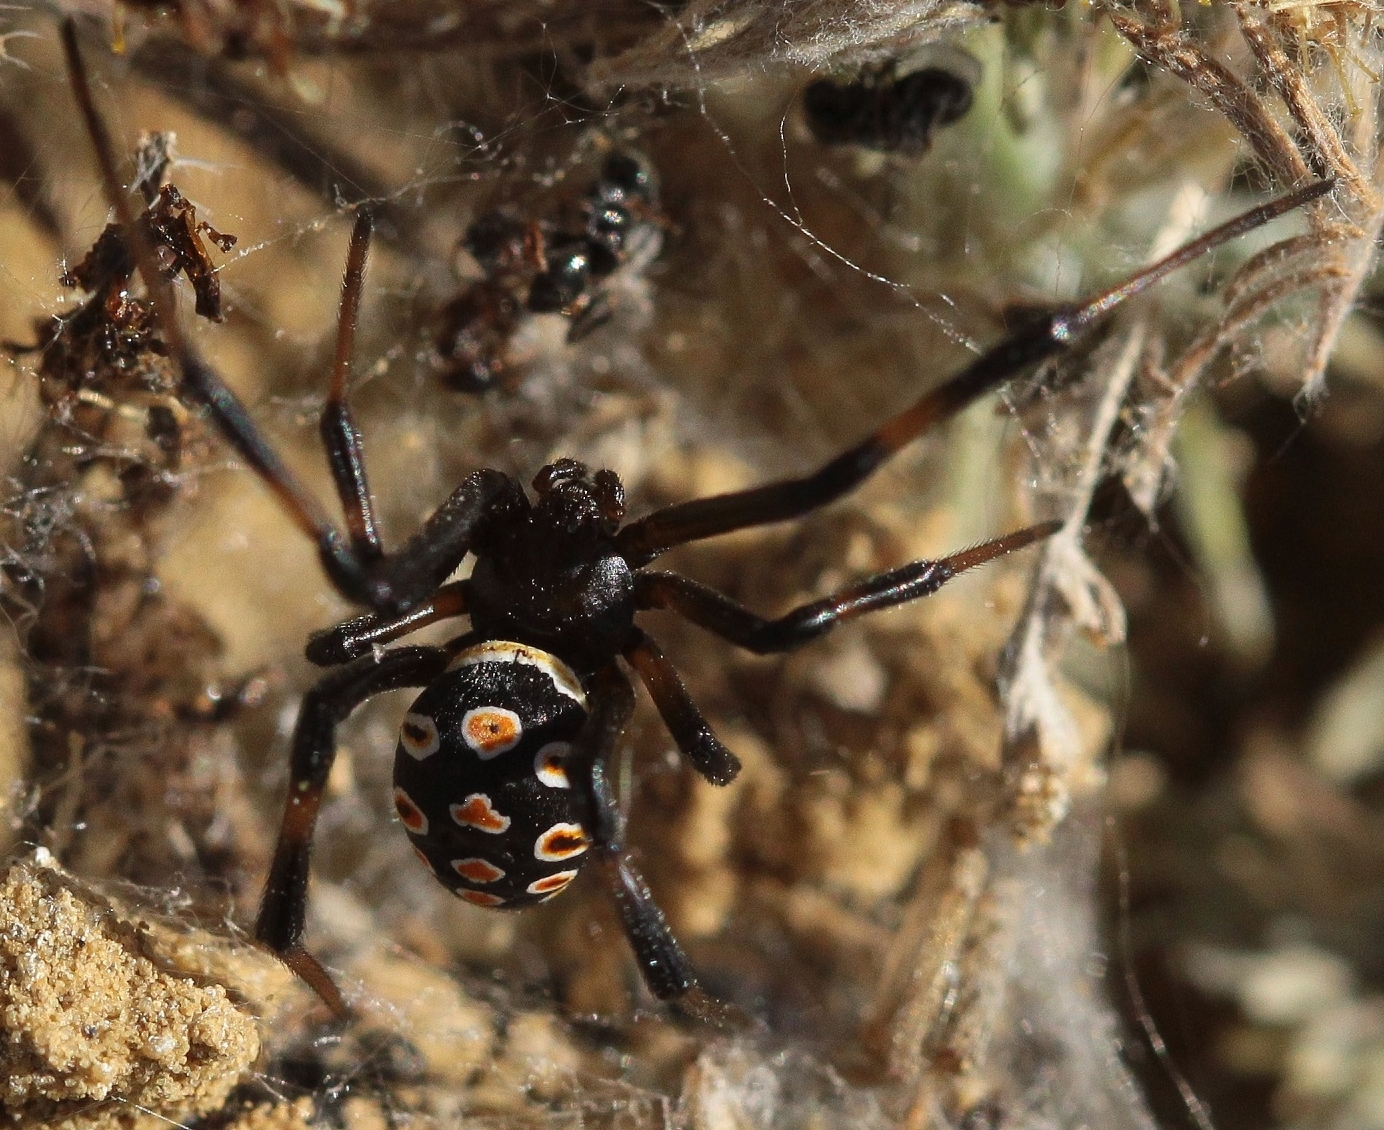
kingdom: Animalia
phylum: Arthropoda
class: Arachnida
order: Araneae
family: Theridiidae
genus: Latrodectus
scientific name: Latrodectus tredecimguttatus
